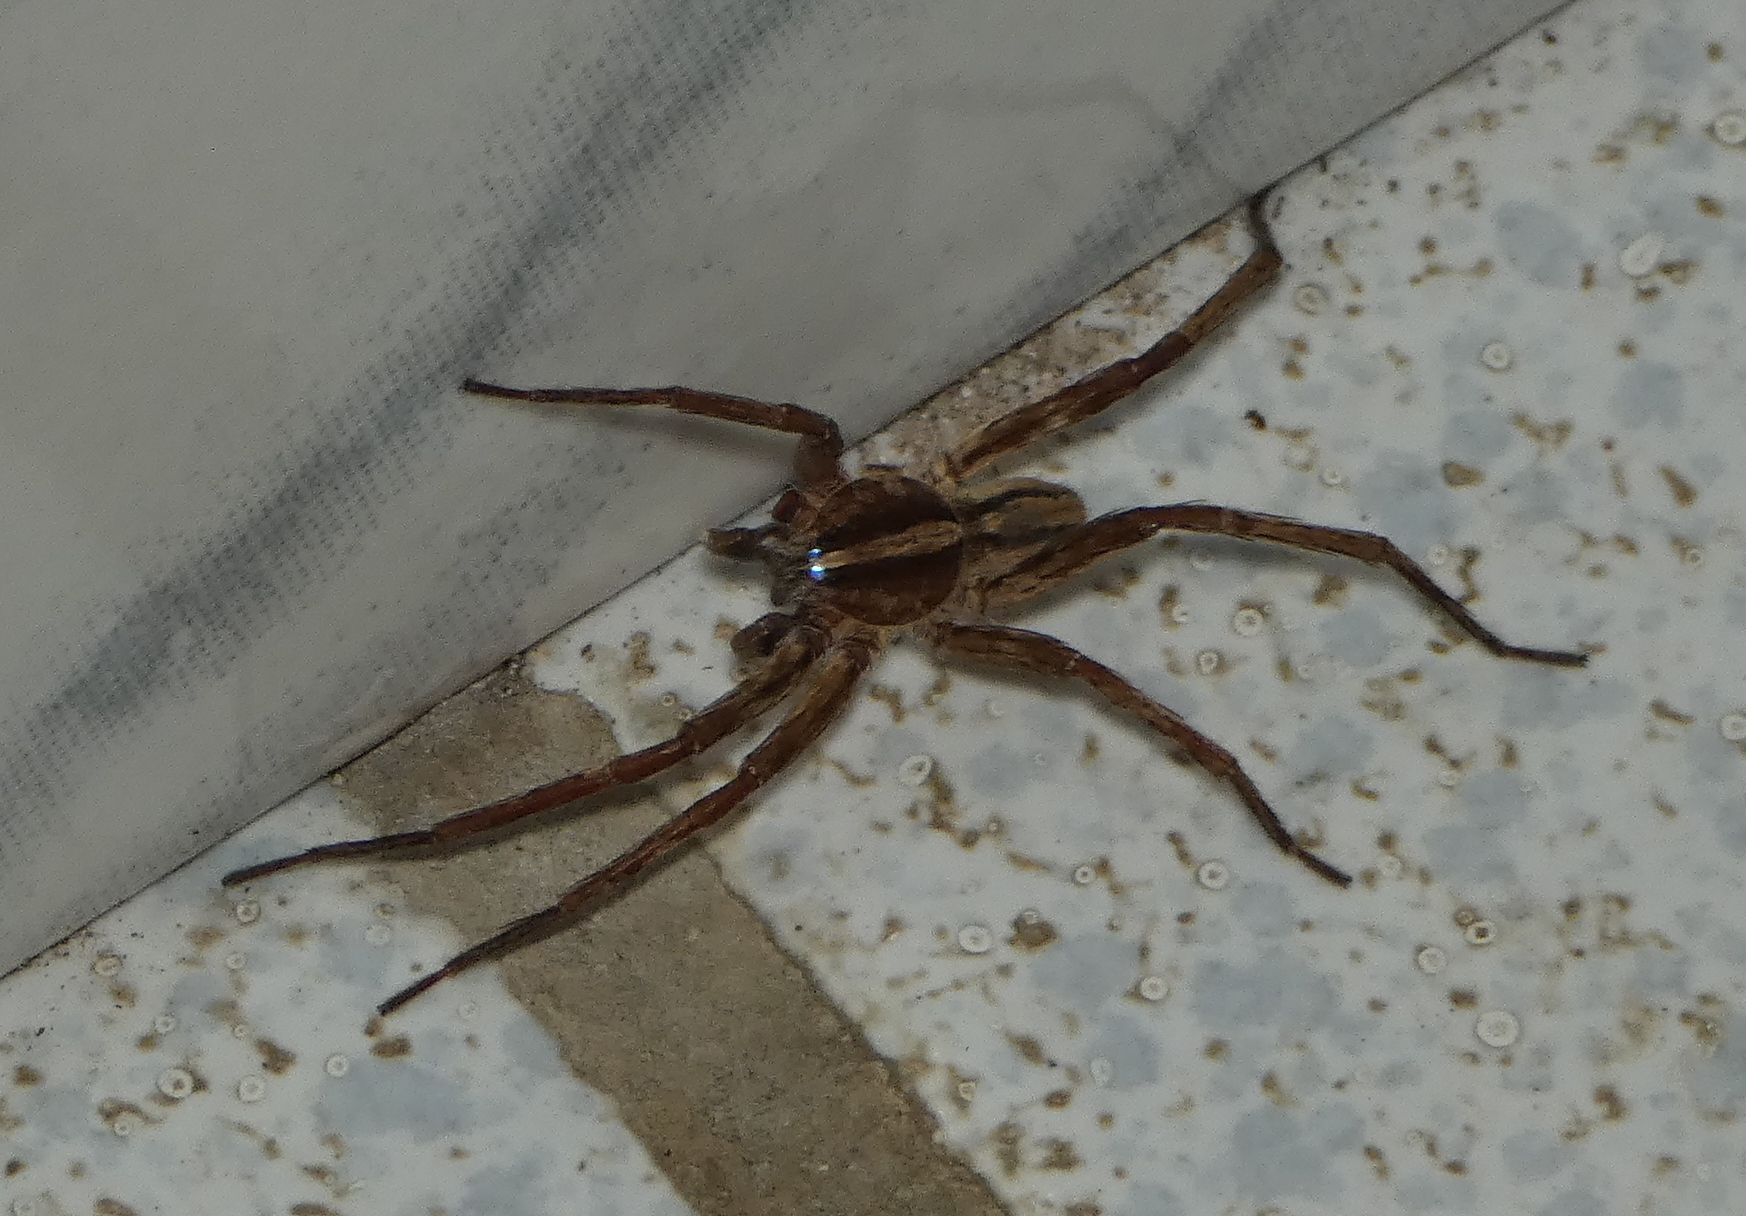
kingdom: Animalia
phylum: Arthropoda
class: Arachnida
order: Araneae
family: Ctenidae
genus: Parabatinga
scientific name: Parabatinga brevipes
